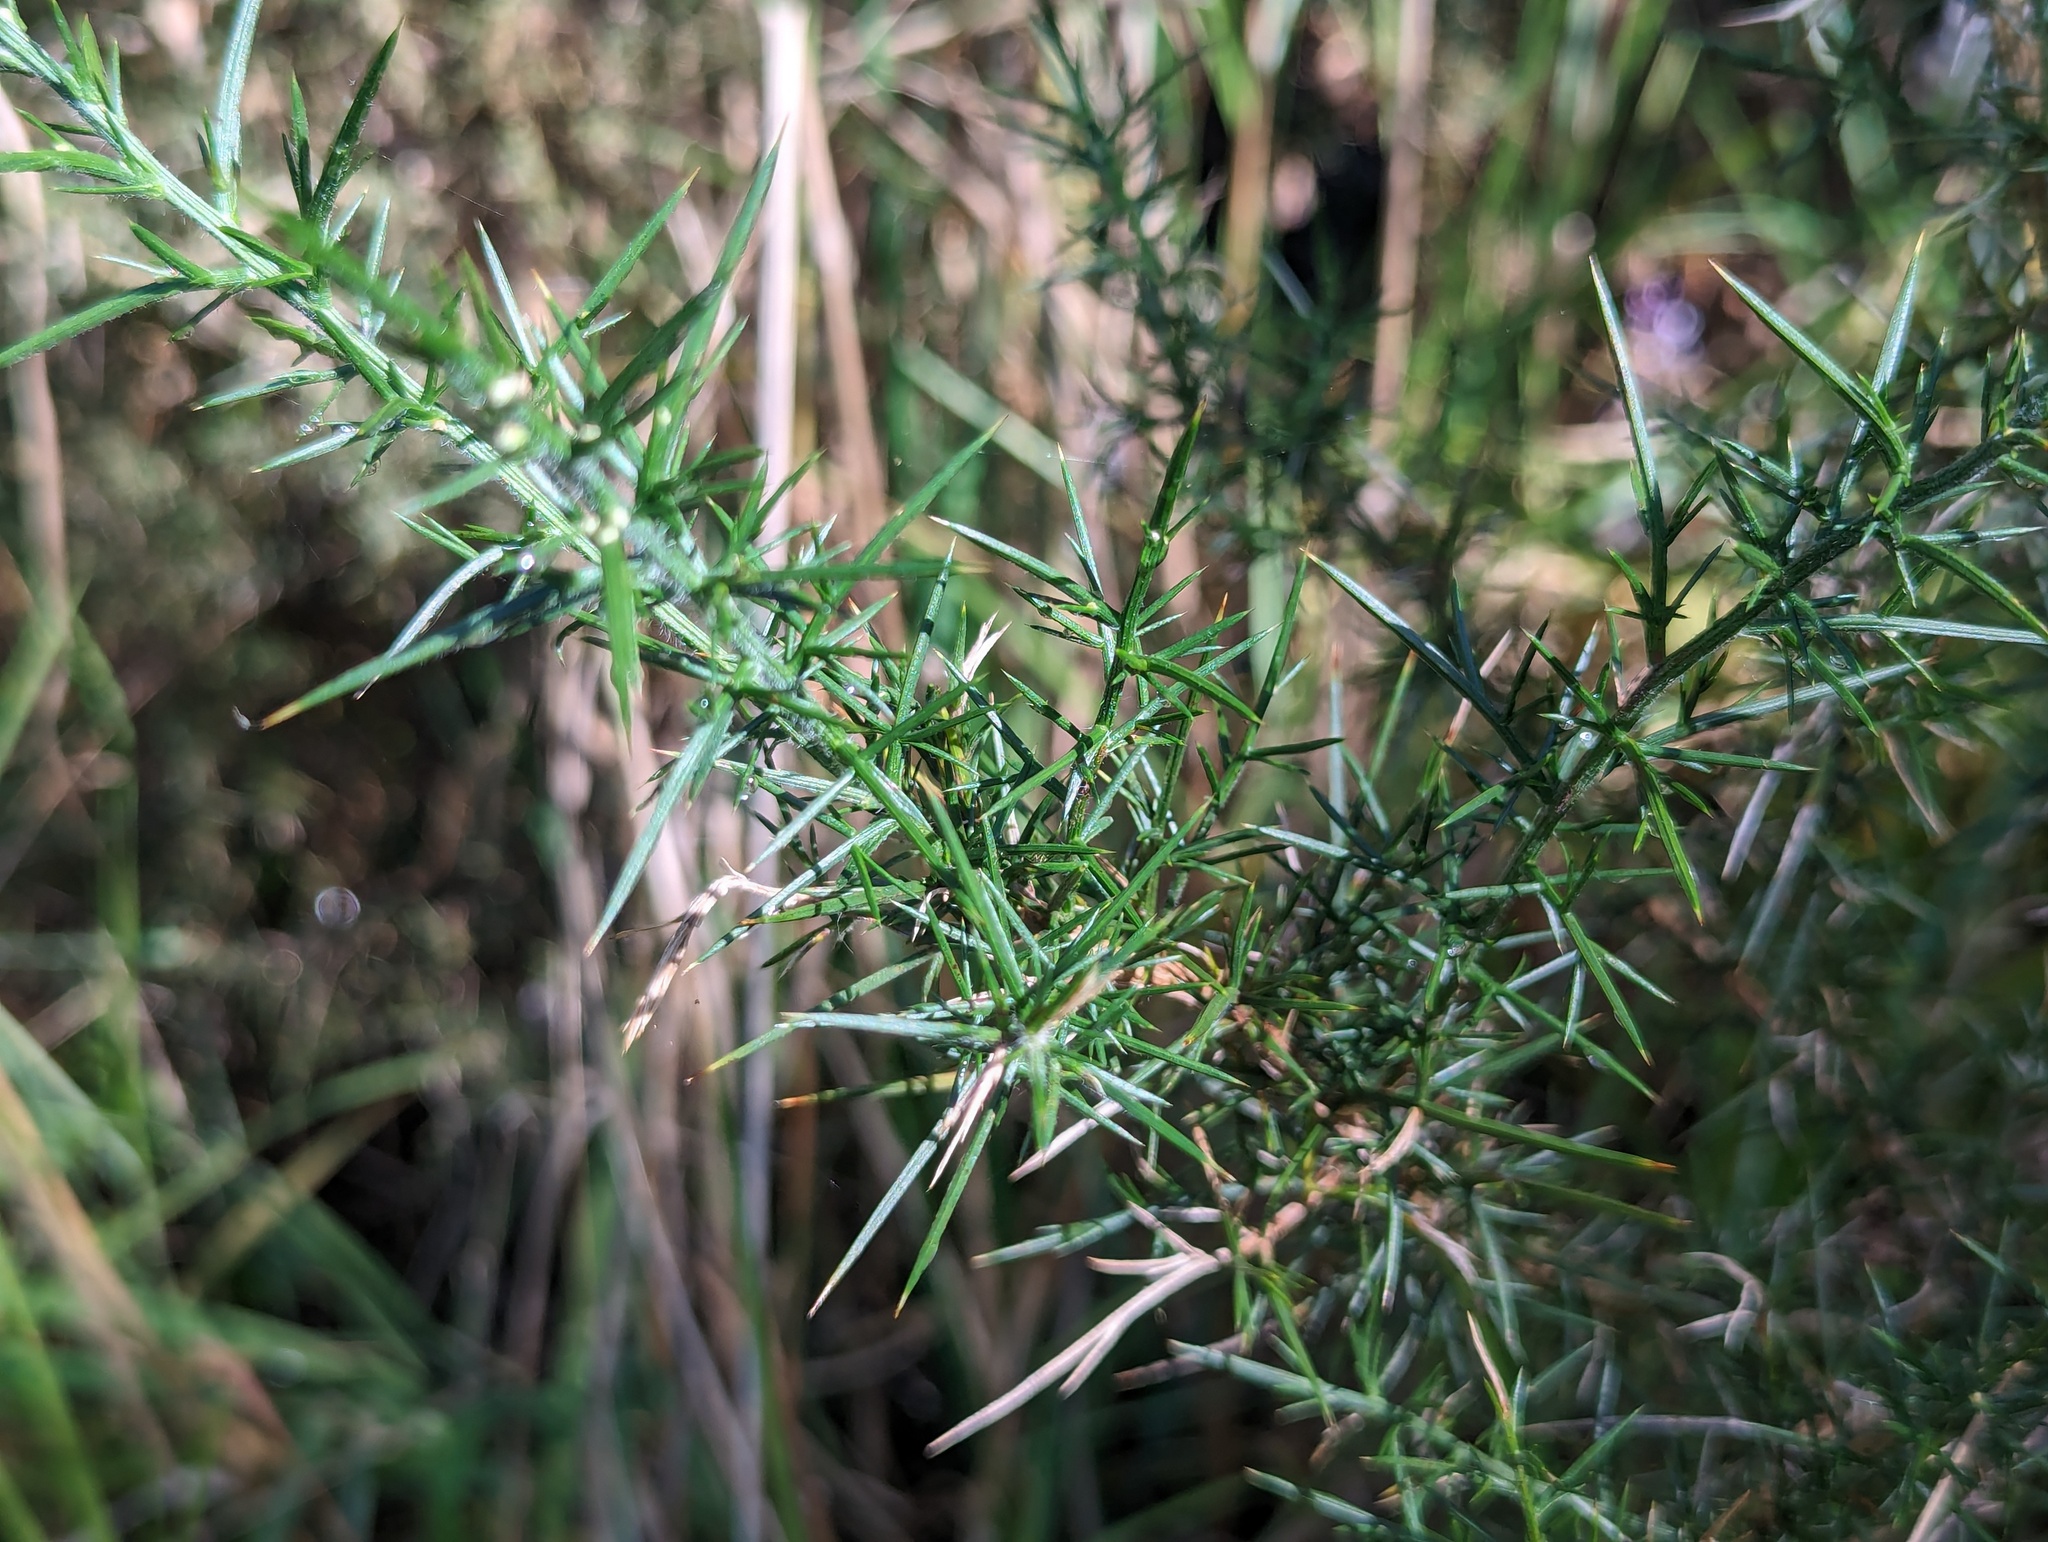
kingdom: Plantae
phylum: Tracheophyta
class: Magnoliopsida
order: Fabales
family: Fabaceae
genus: Ulex
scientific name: Ulex europaeus
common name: Common gorse
